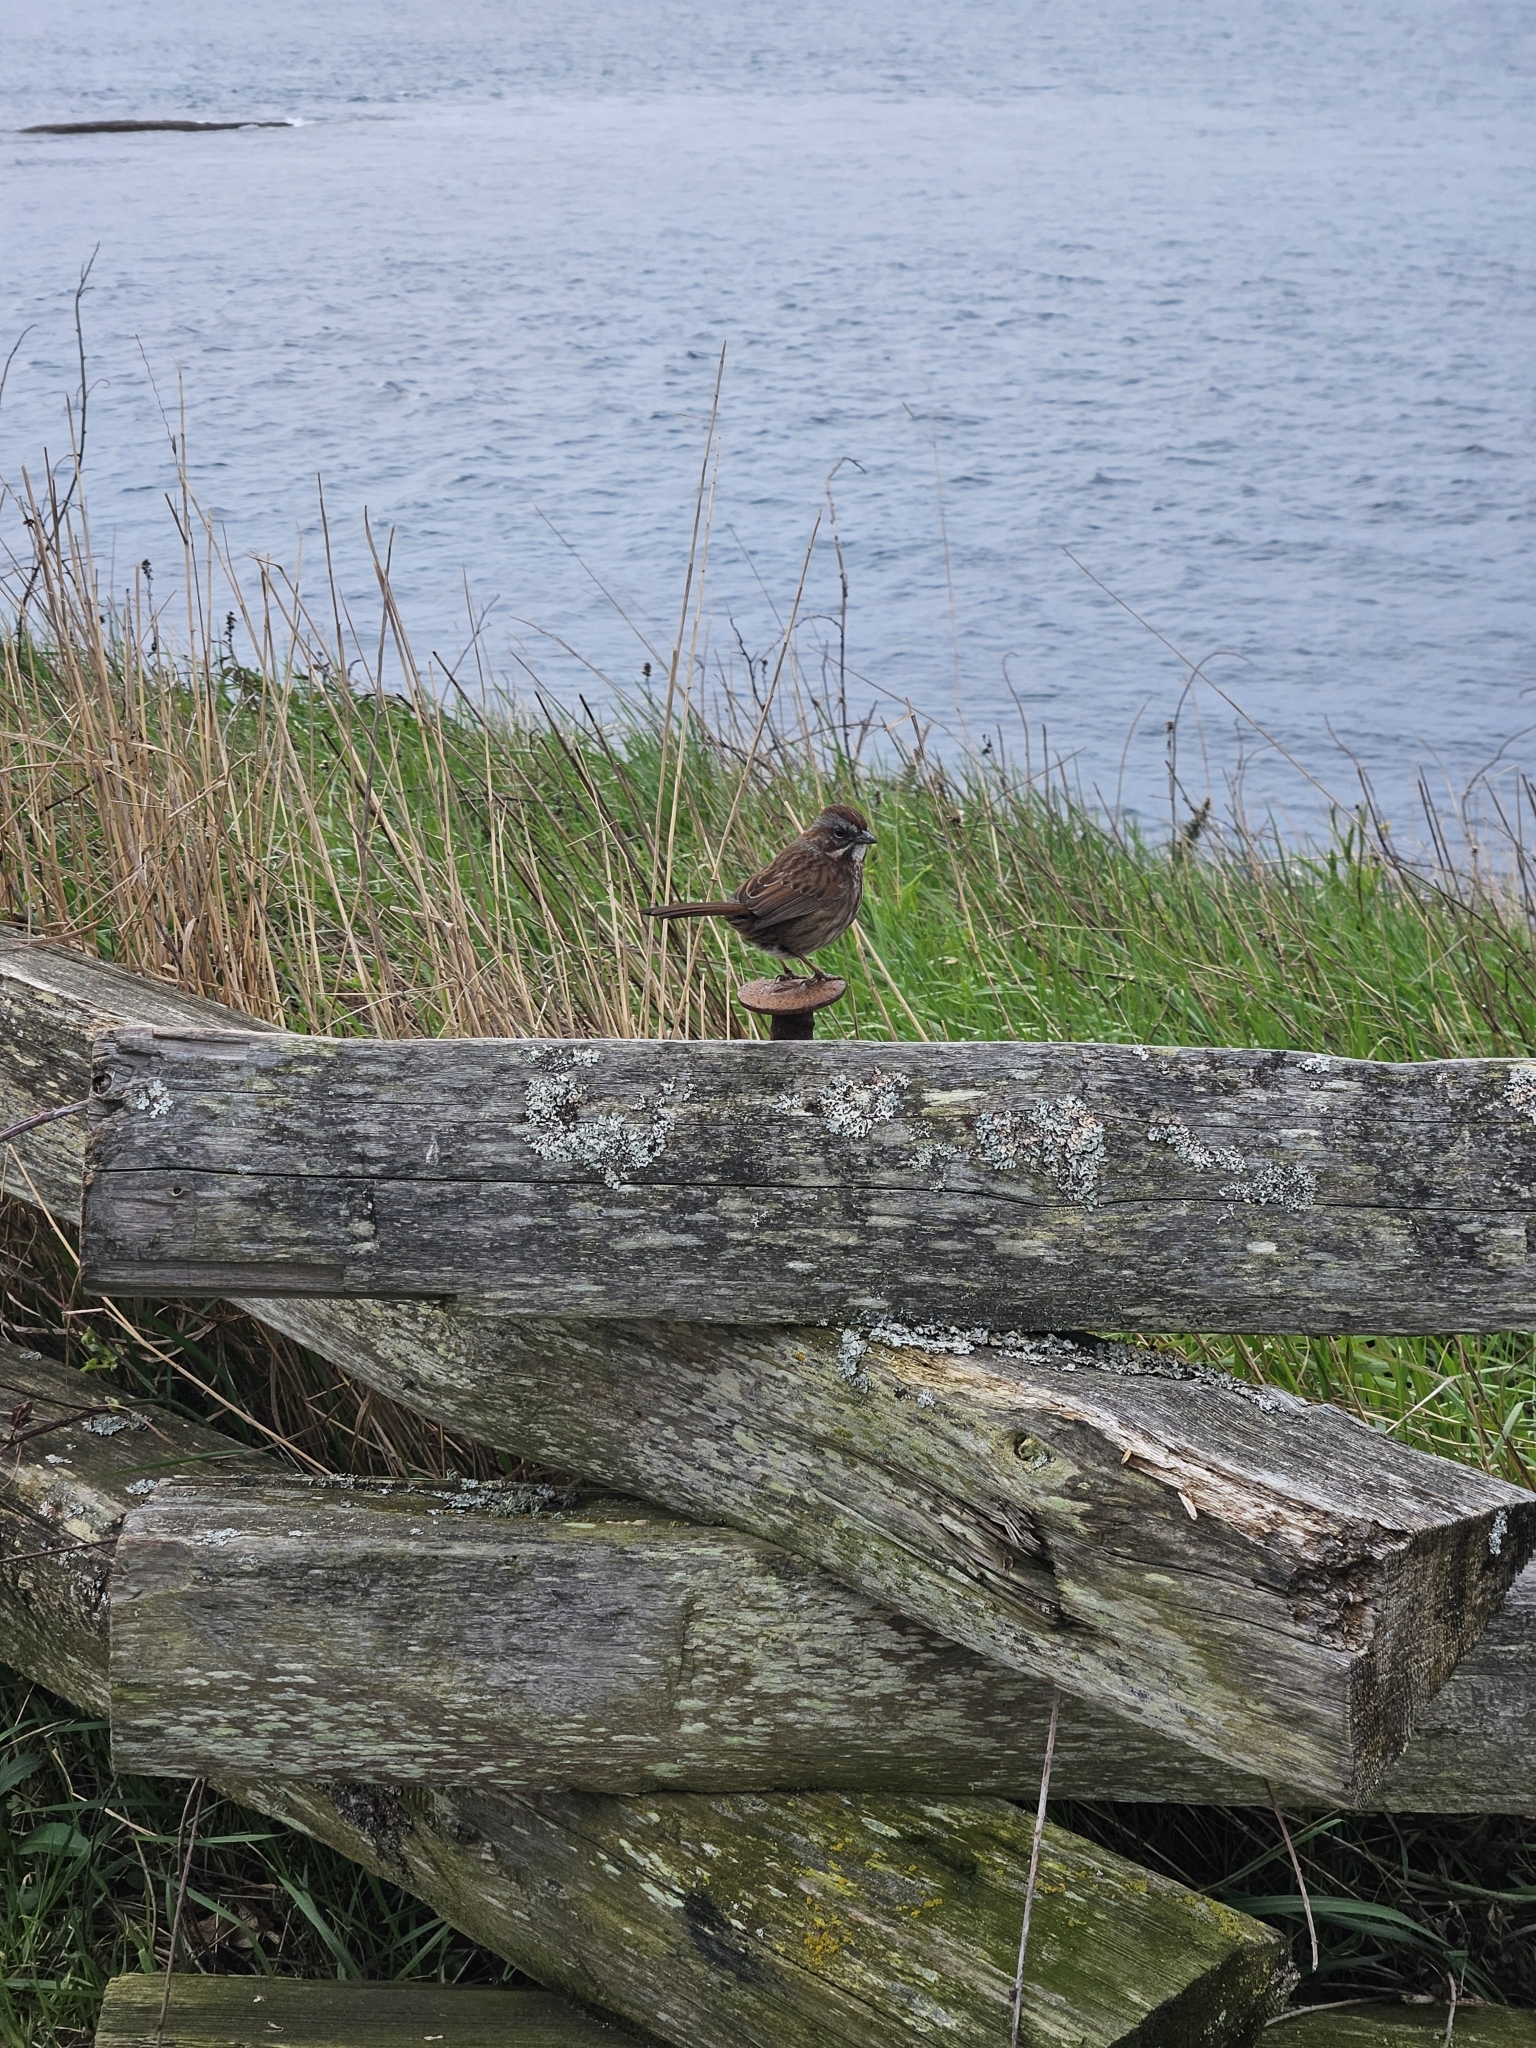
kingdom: Animalia
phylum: Chordata
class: Aves
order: Passeriformes
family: Passerellidae
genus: Melospiza
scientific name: Melospiza melodia
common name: Song sparrow
